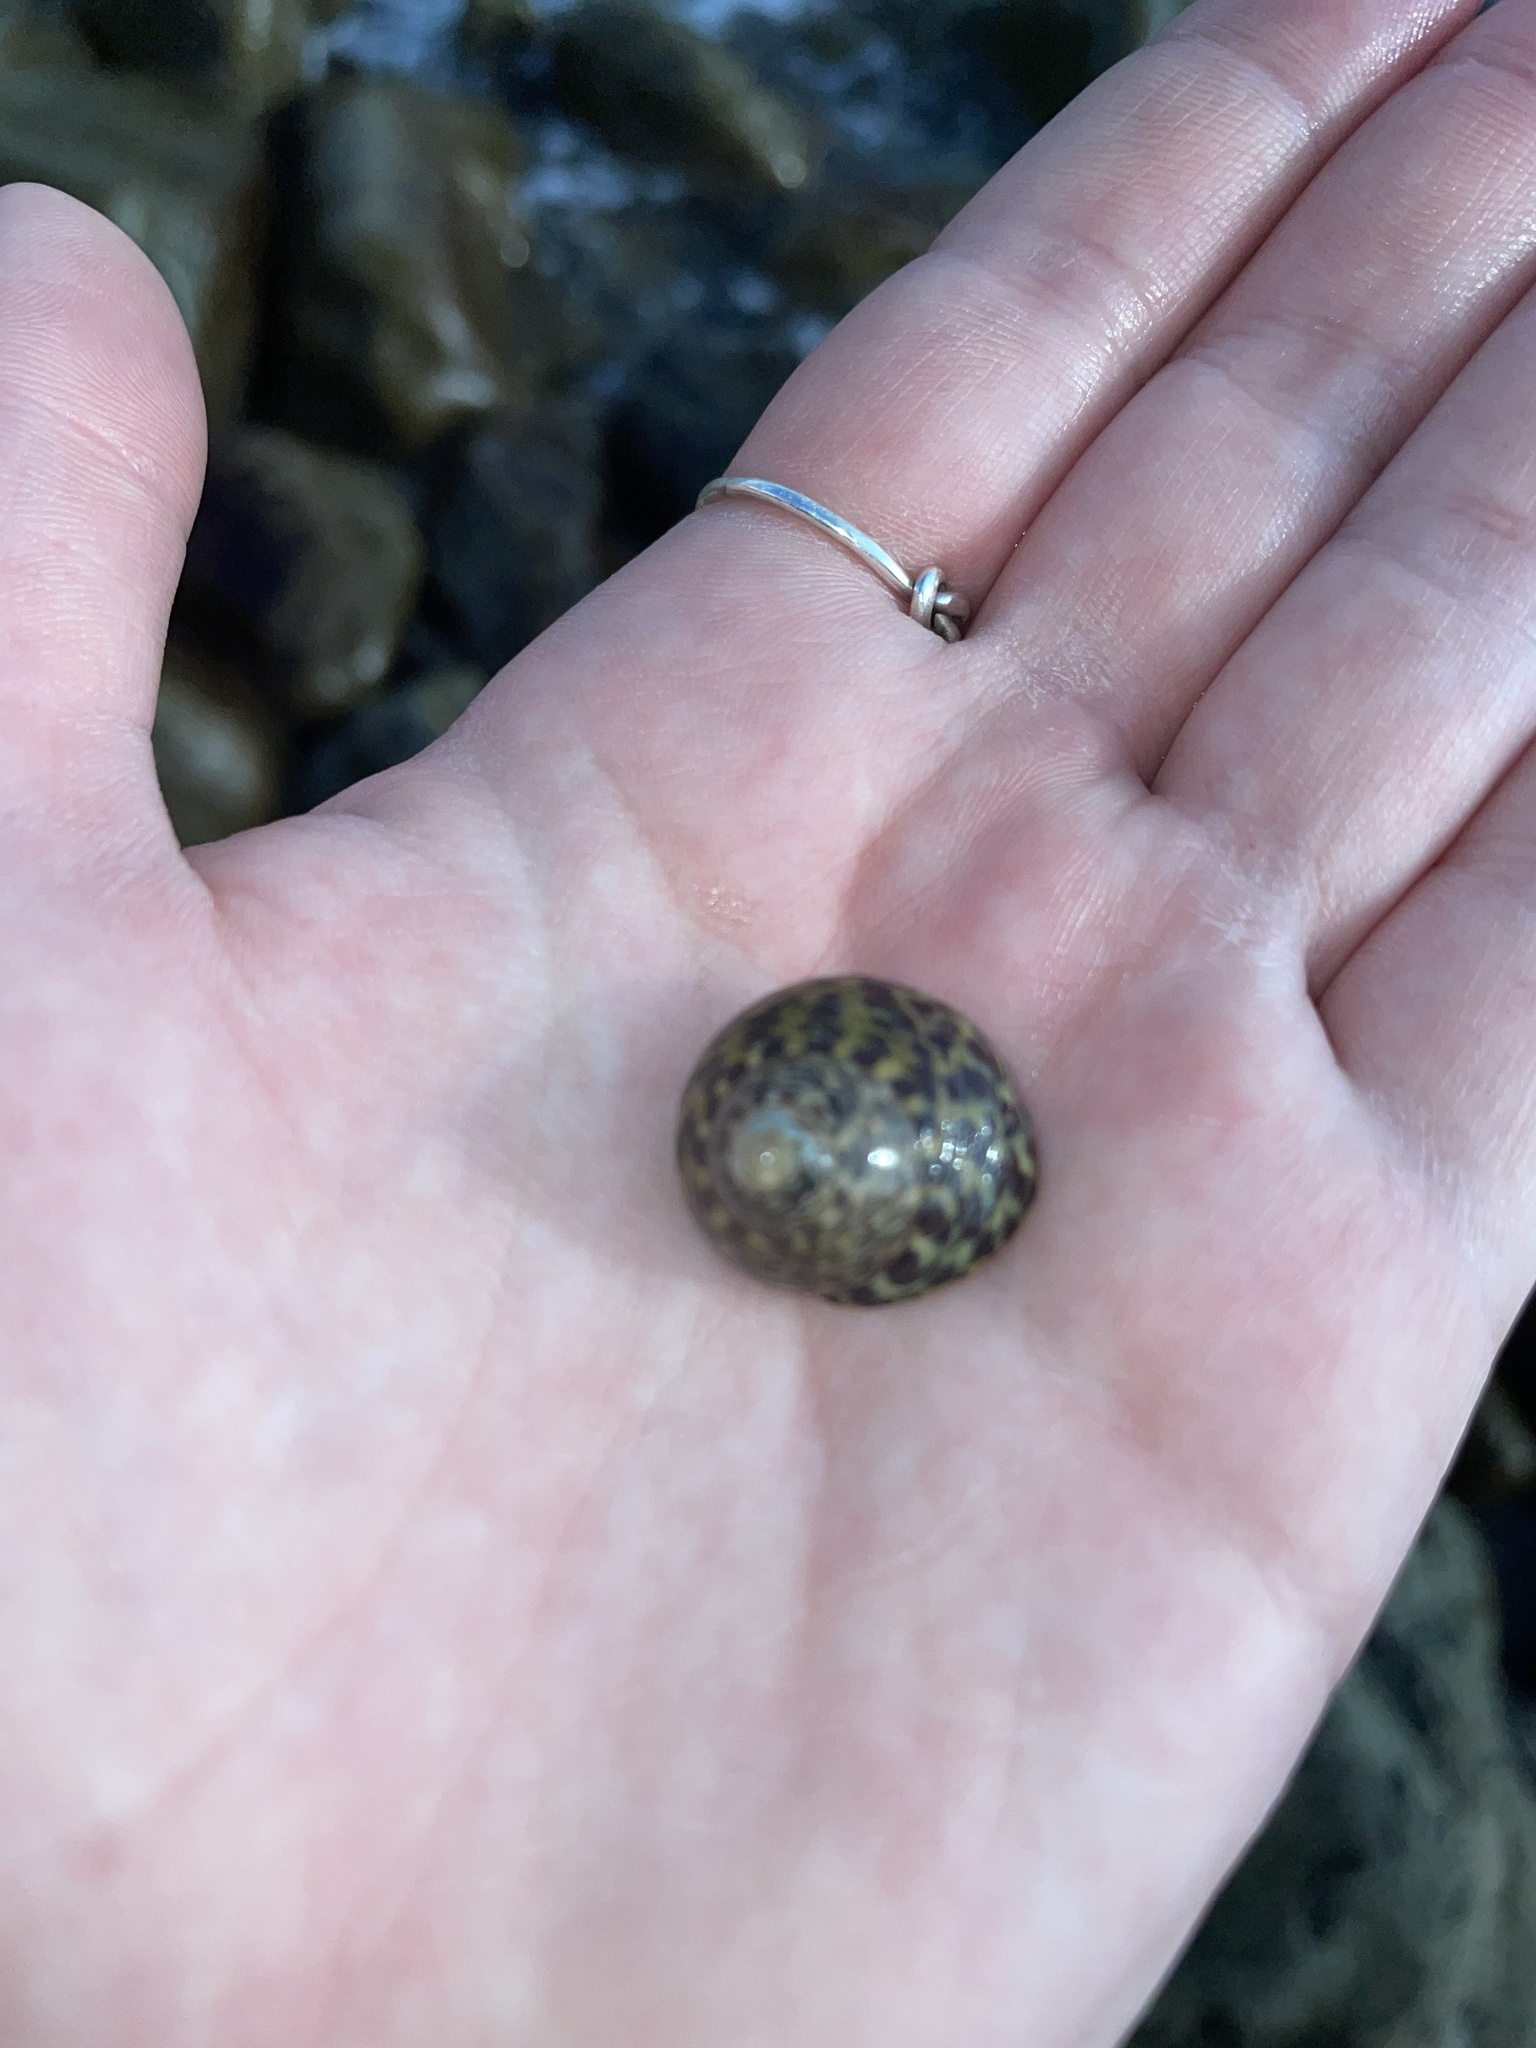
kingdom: Animalia
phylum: Mollusca
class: Gastropoda
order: Trochida
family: Trochidae
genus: Phorcus
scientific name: Phorcus turbinatus
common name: Turbinate monodont
